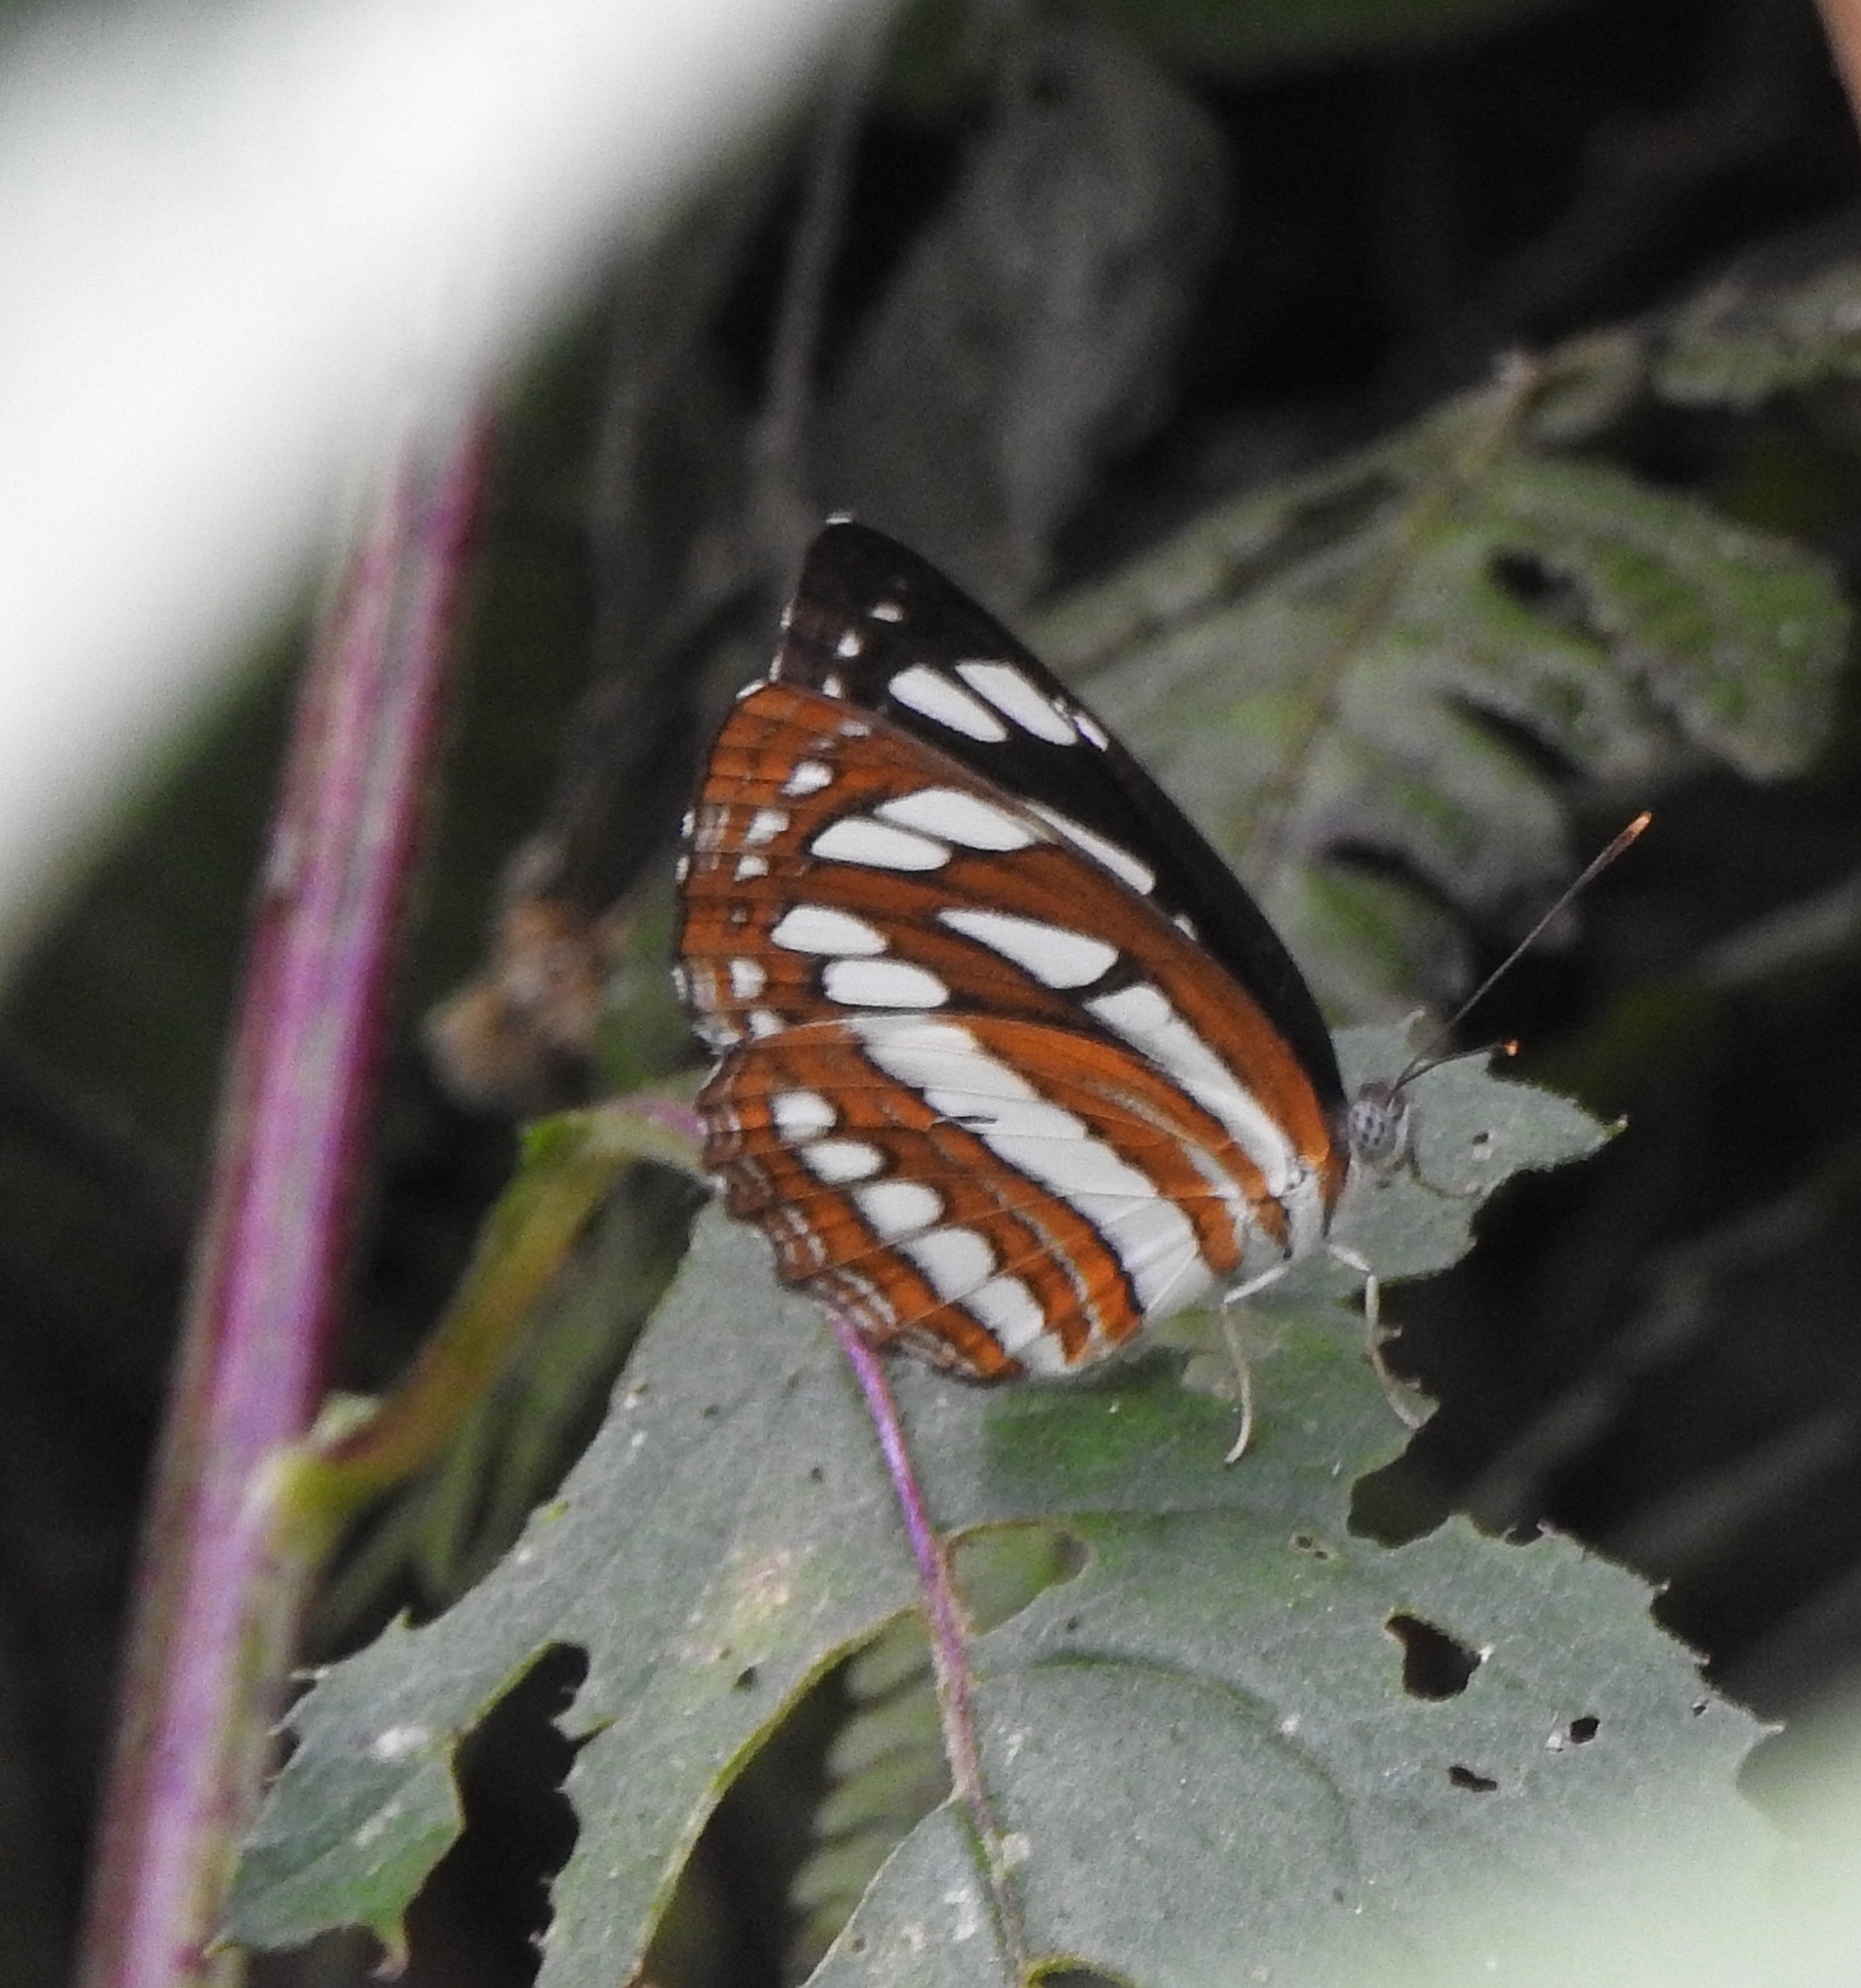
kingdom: Animalia
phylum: Arthropoda
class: Insecta
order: Lepidoptera
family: Nymphalidae
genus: Neptis
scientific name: Neptis hylas
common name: Common sailer
